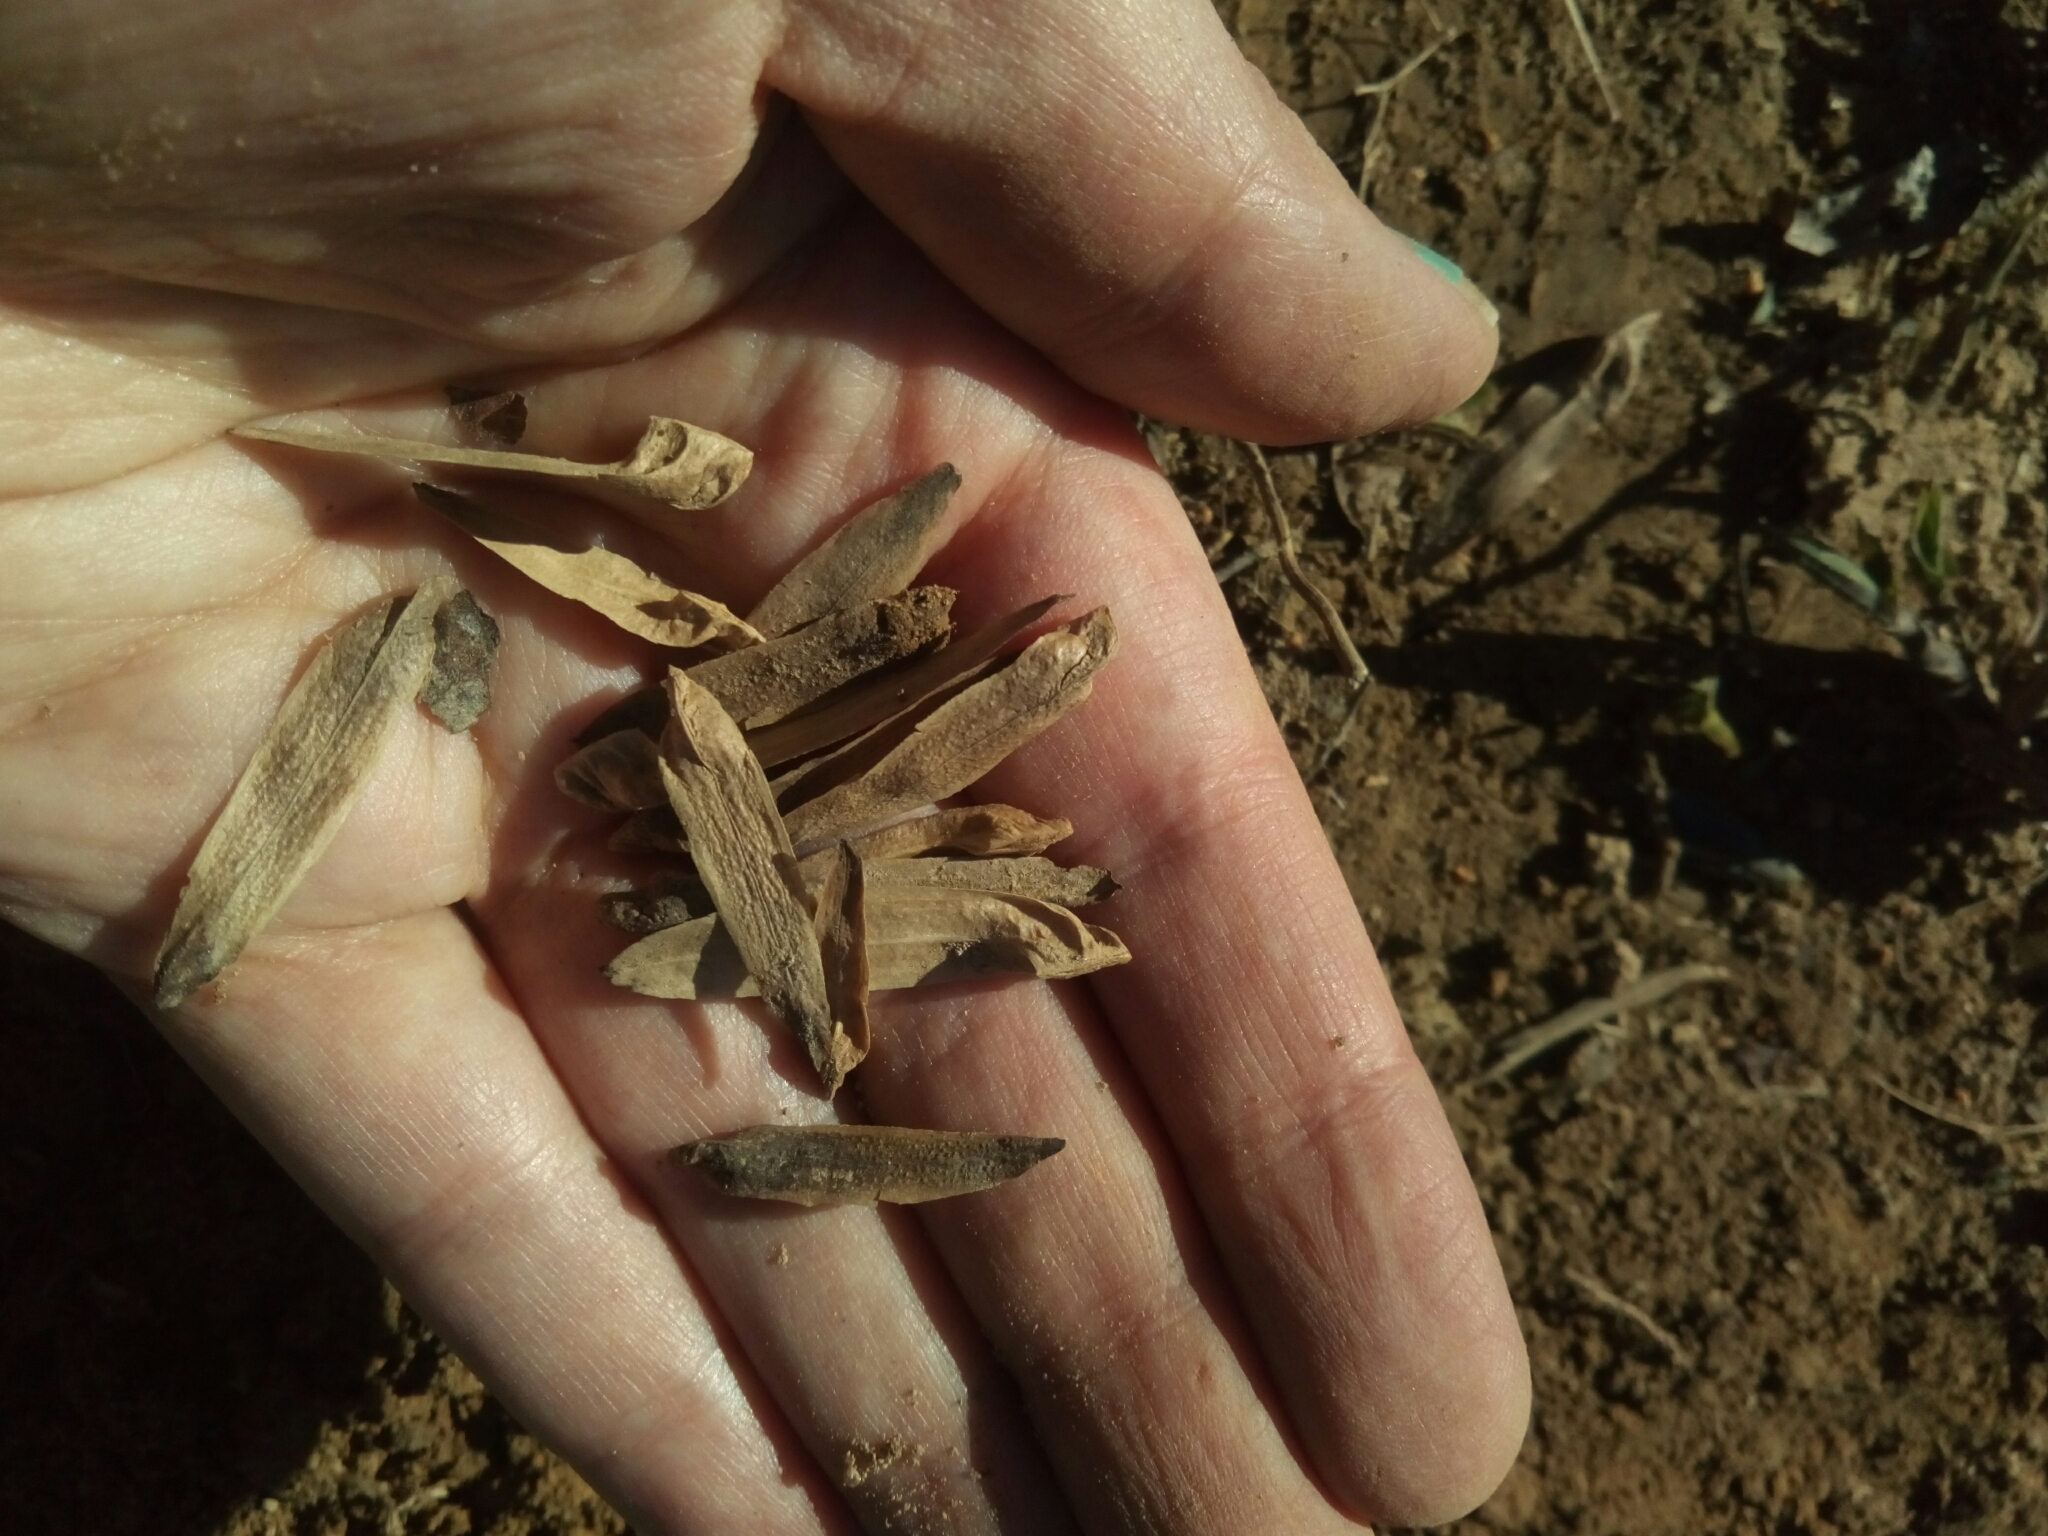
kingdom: Plantae
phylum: Tracheophyta
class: Magnoliopsida
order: Magnoliales
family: Magnoliaceae
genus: Liriodendron
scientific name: Liriodendron tulipifera
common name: Tulip tree
